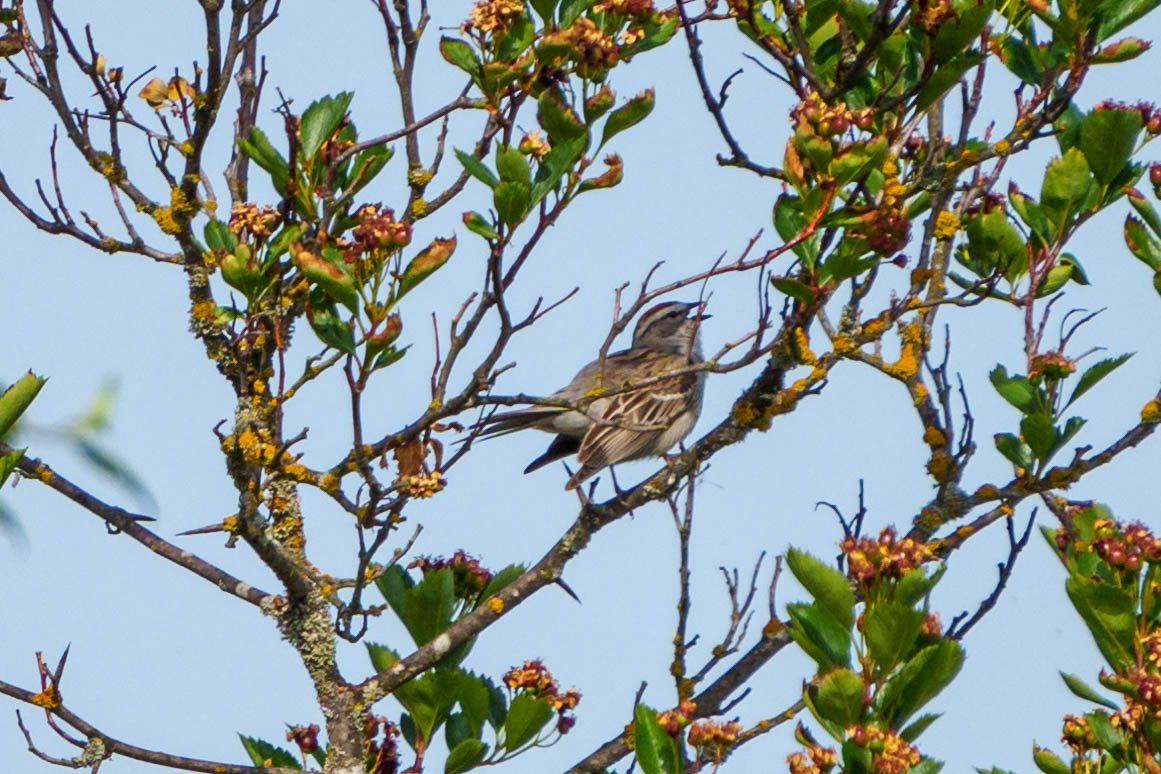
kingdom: Animalia
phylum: Chordata
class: Aves
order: Passeriformes
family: Passerellidae
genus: Spizella
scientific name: Spizella passerina
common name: Chipping sparrow
